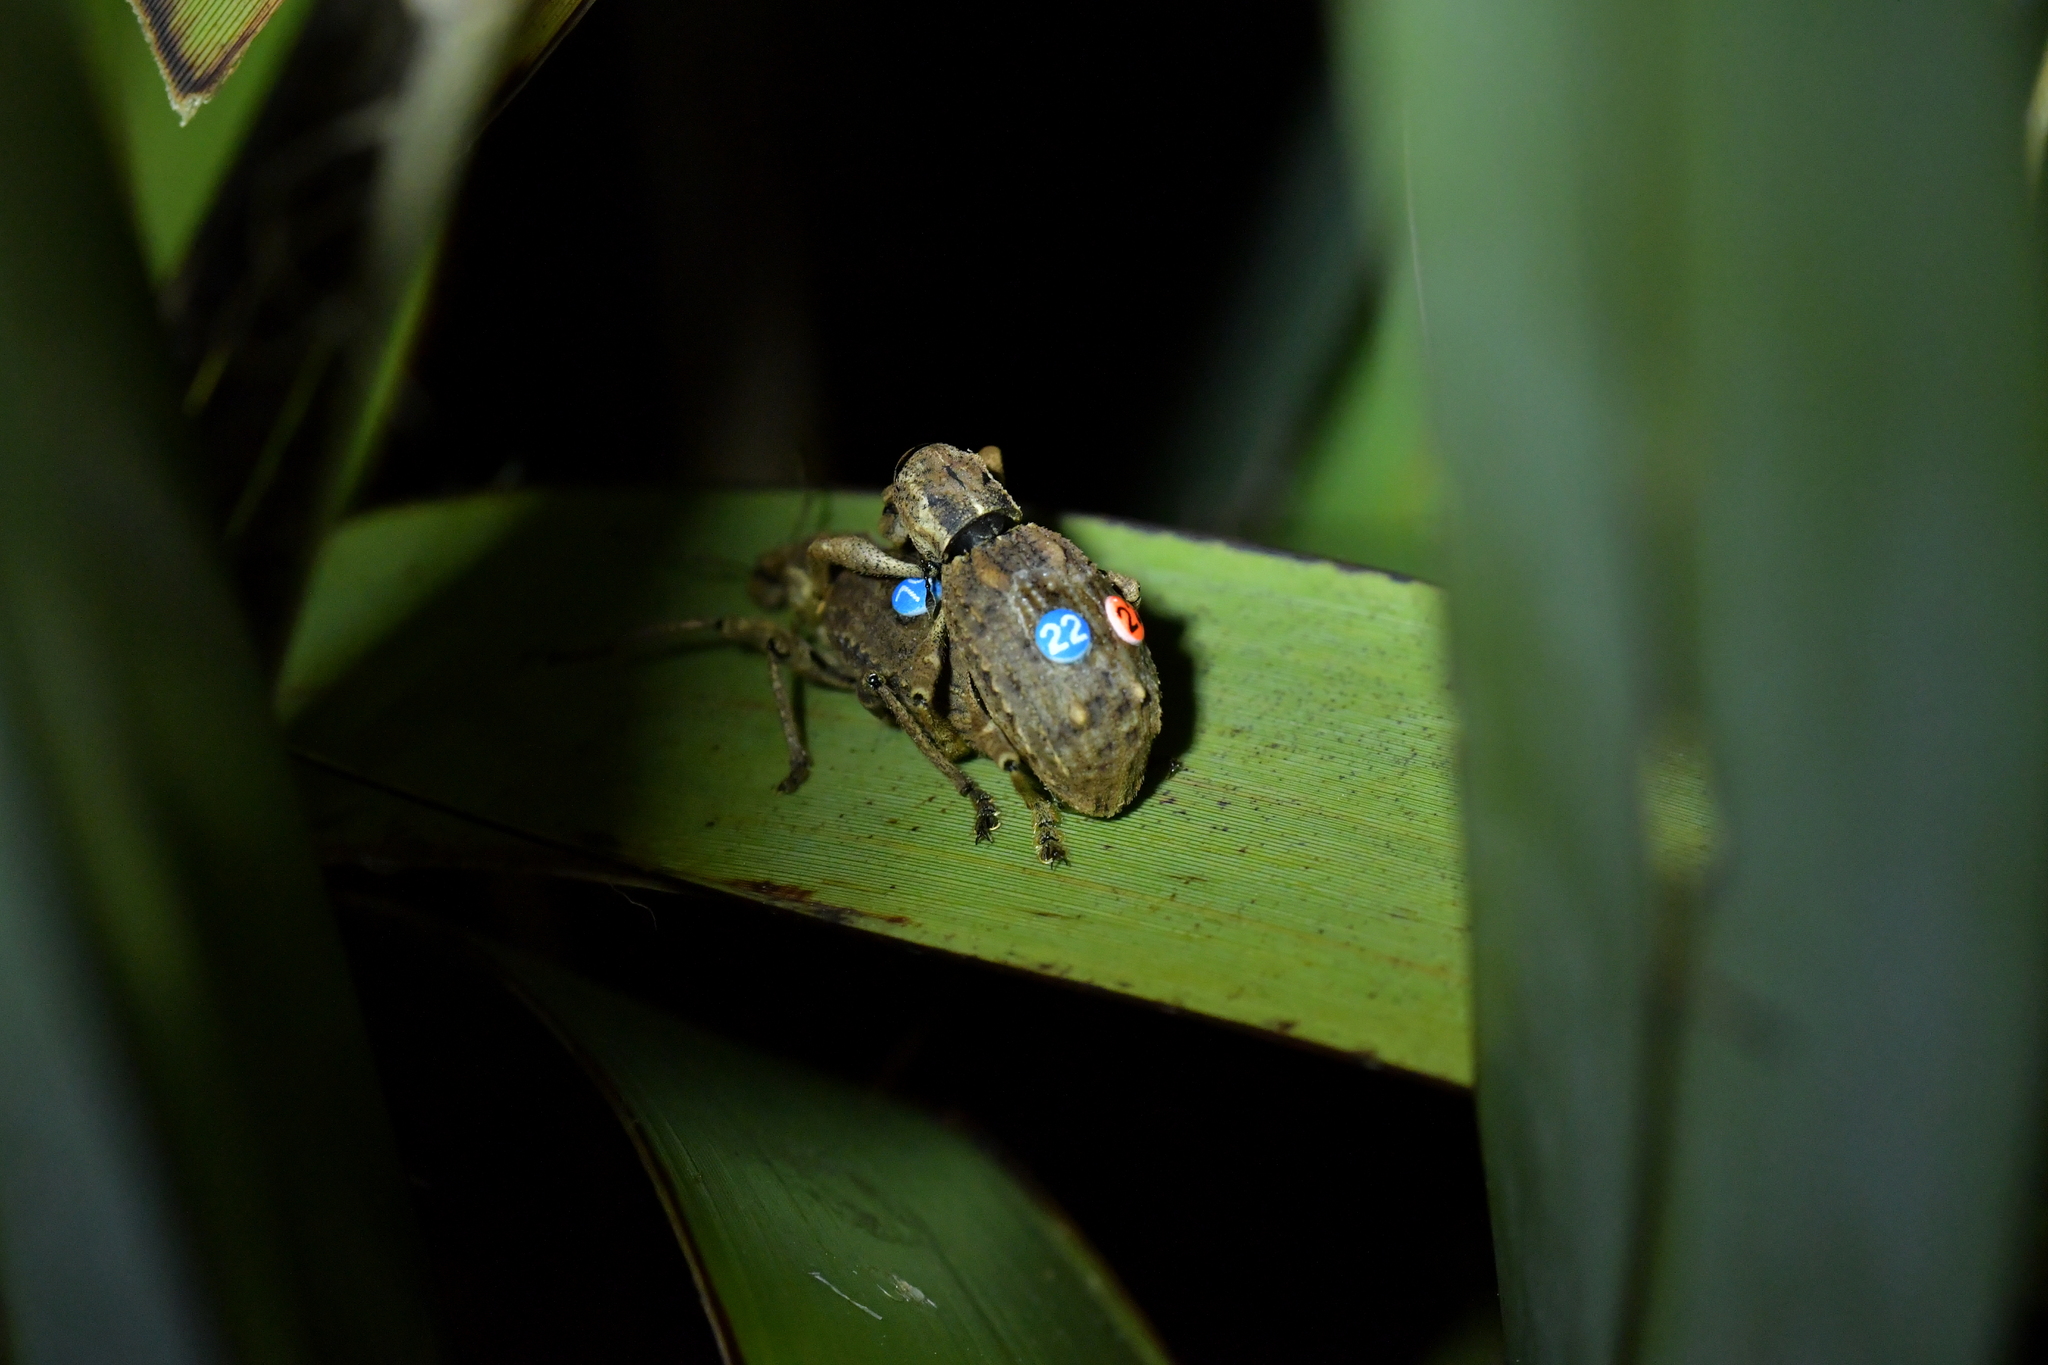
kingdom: Animalia
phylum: Arthropoda
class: Insecta
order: Coleoptera
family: Curculionidae
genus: Anagotus
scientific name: Anagotus fairburni
